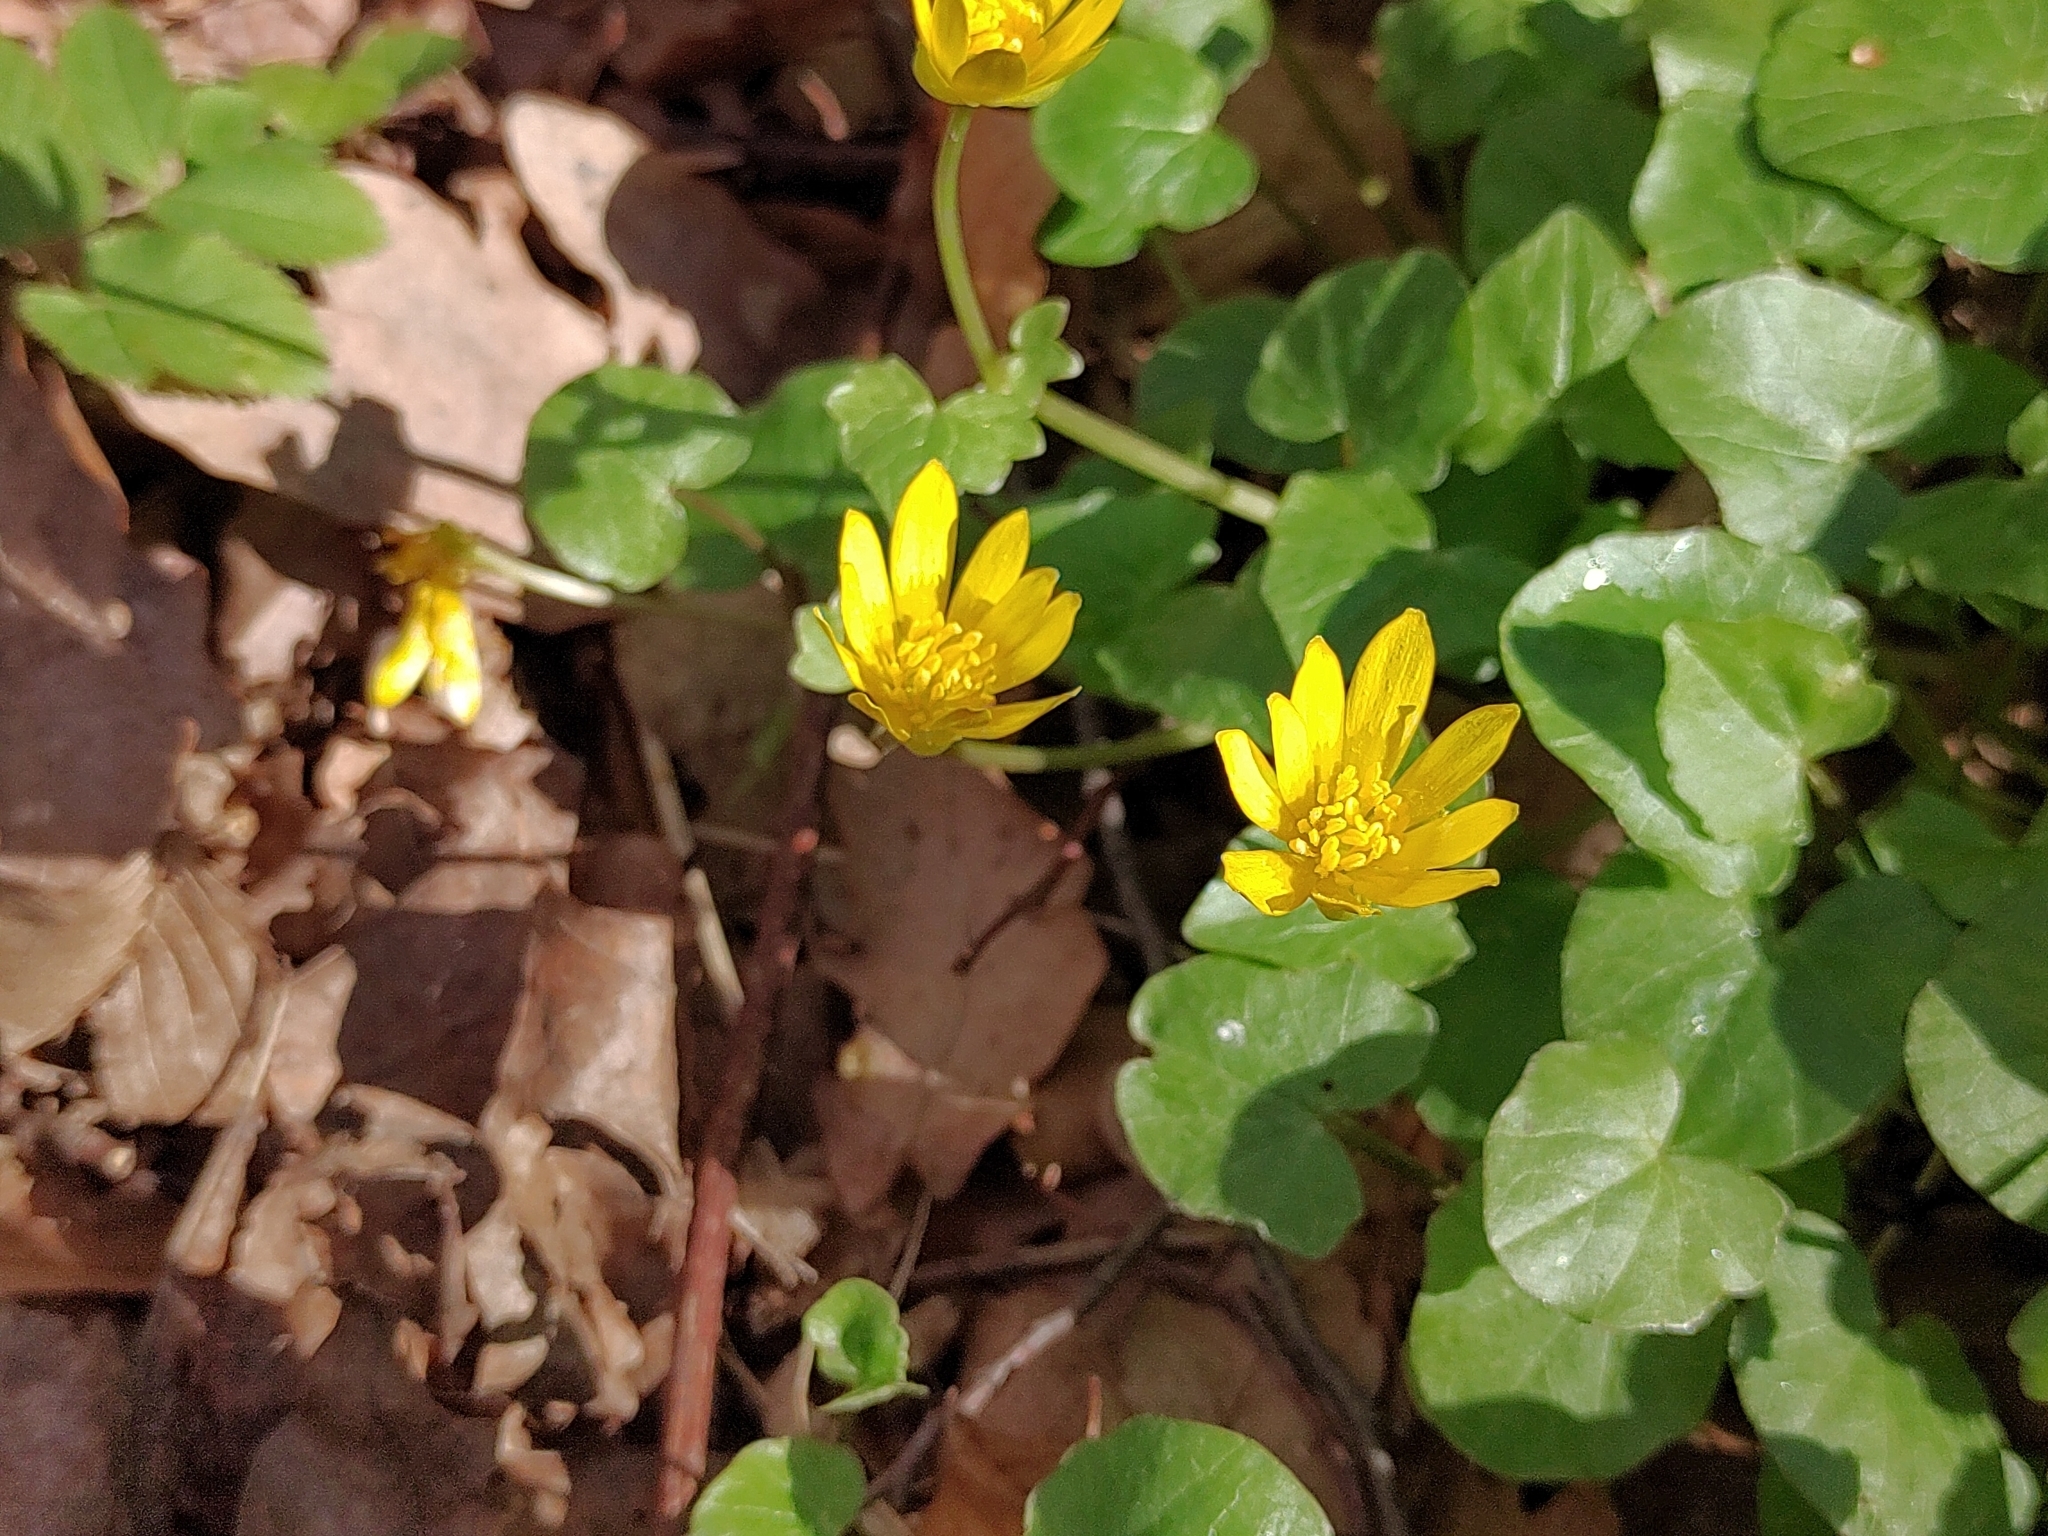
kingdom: Plantae
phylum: Tracheophyta
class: Magnoliopsida
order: Ranunculales
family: Ranunculaceae
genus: Ficaria
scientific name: Ficaria verna
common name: Lesser celandine
